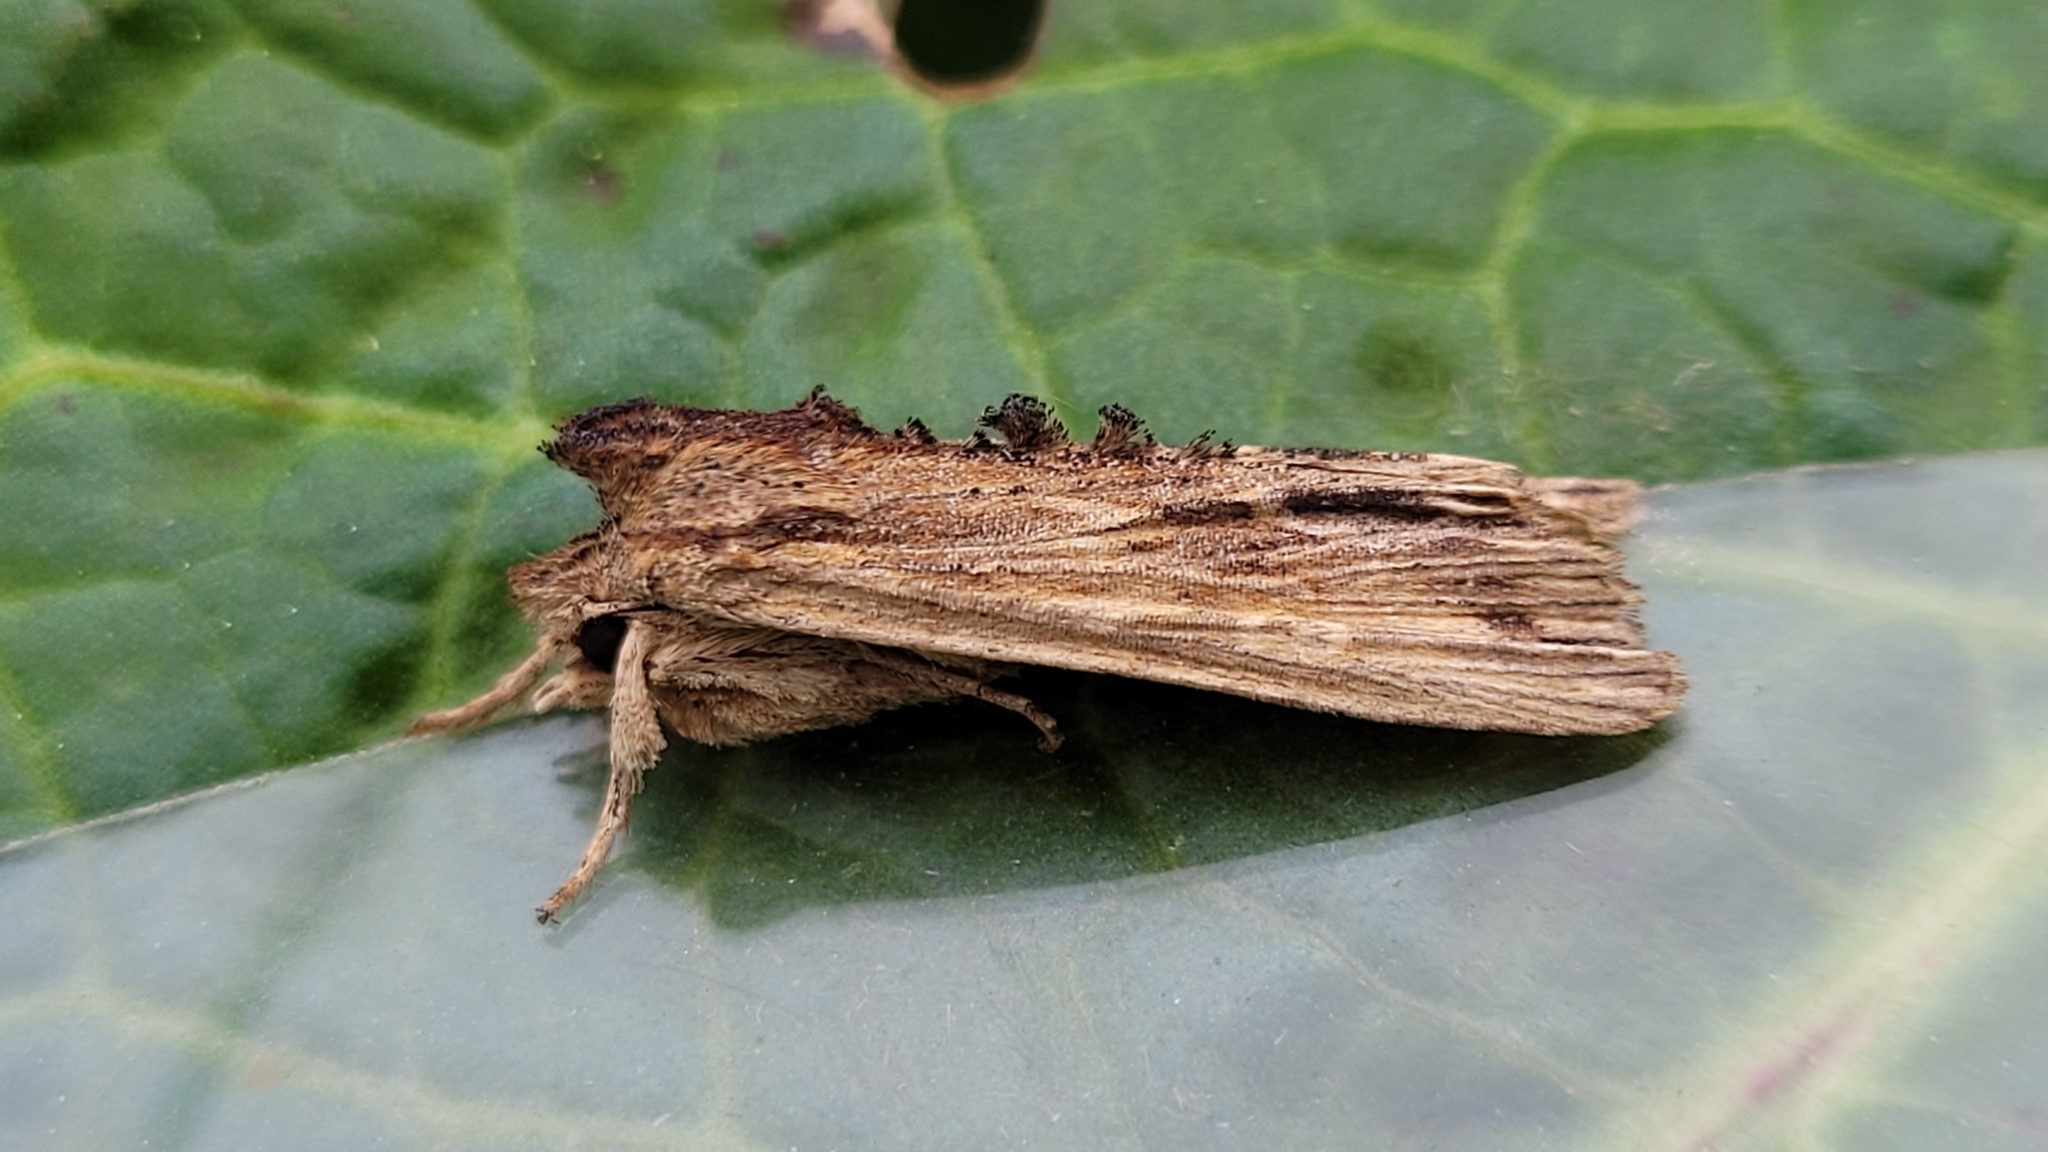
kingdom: Animalia
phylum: Arthropoda
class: Insecta
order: Lepidoptera
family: Noctuidae
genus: Lithophane
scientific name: Lithophane socia
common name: Pale pinion
